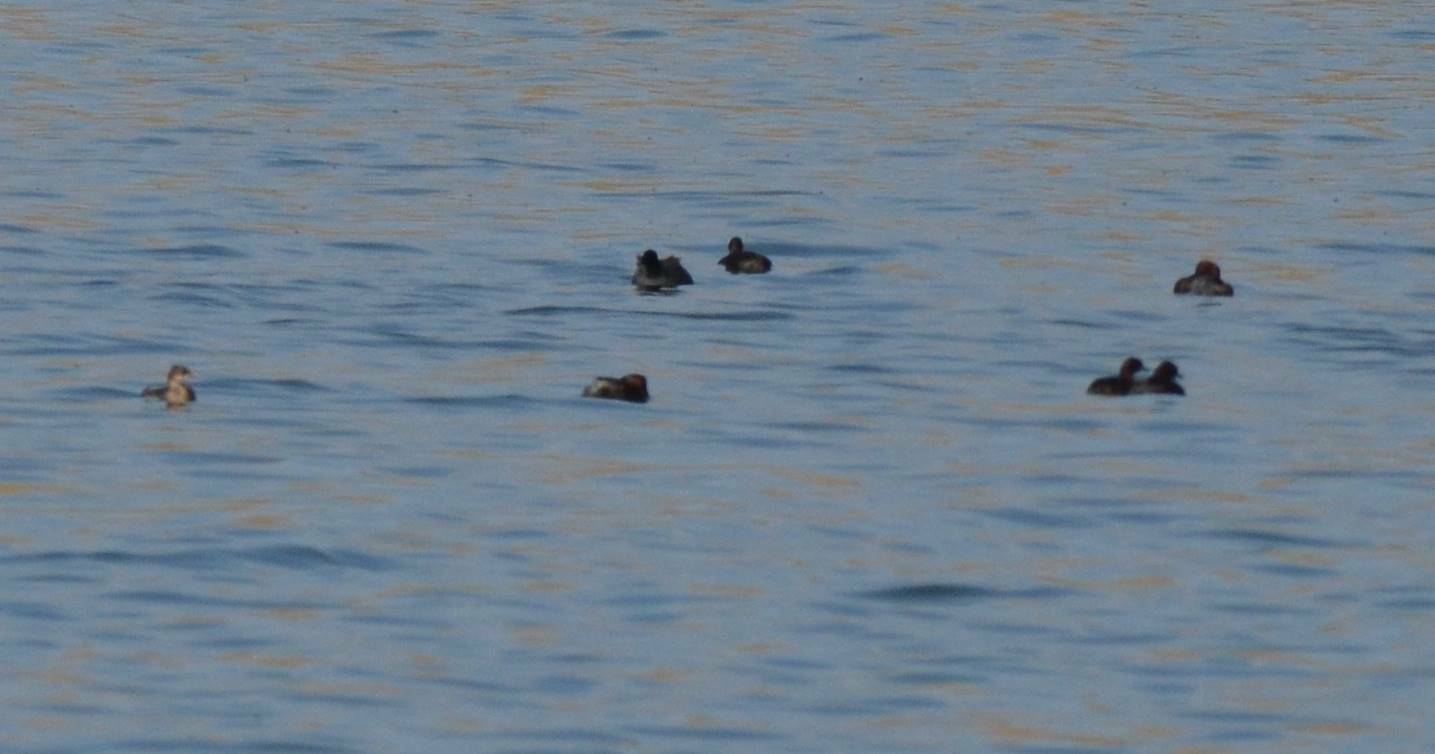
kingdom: Animalia
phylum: Chordata
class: Aves
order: Podicipediformes
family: Podicipedidae
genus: Tachybaptus
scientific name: Tachybaptus ruficollis
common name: Little grebe
